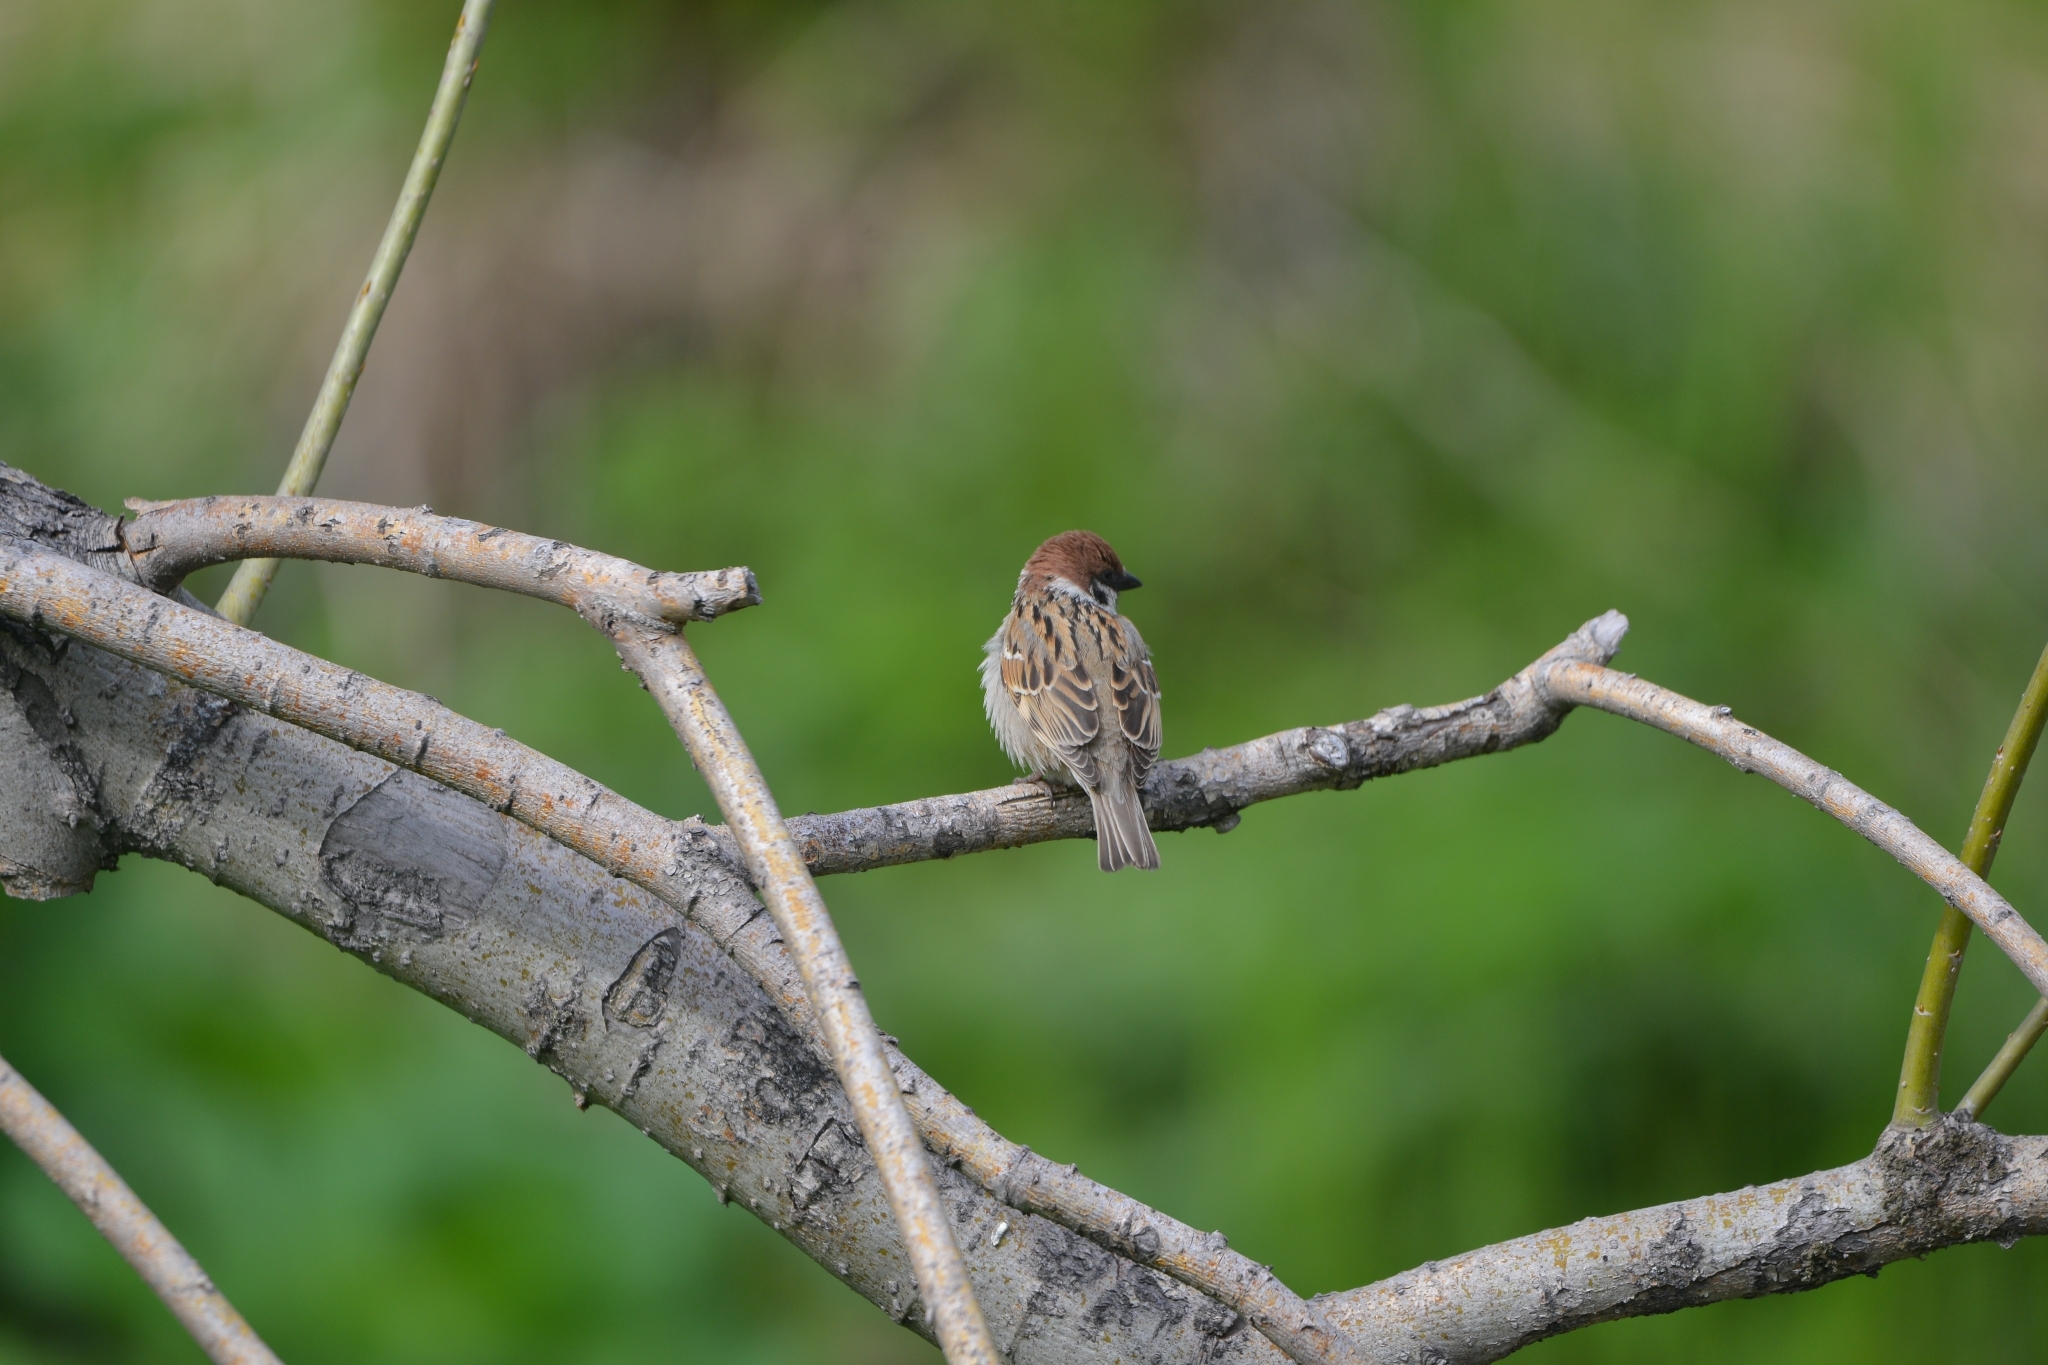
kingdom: Animalia
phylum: Chordata
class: Aves
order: Passeriformes
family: Passeridae
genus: Passer
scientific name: Passer montanus
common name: Eurasian tree sparrow
